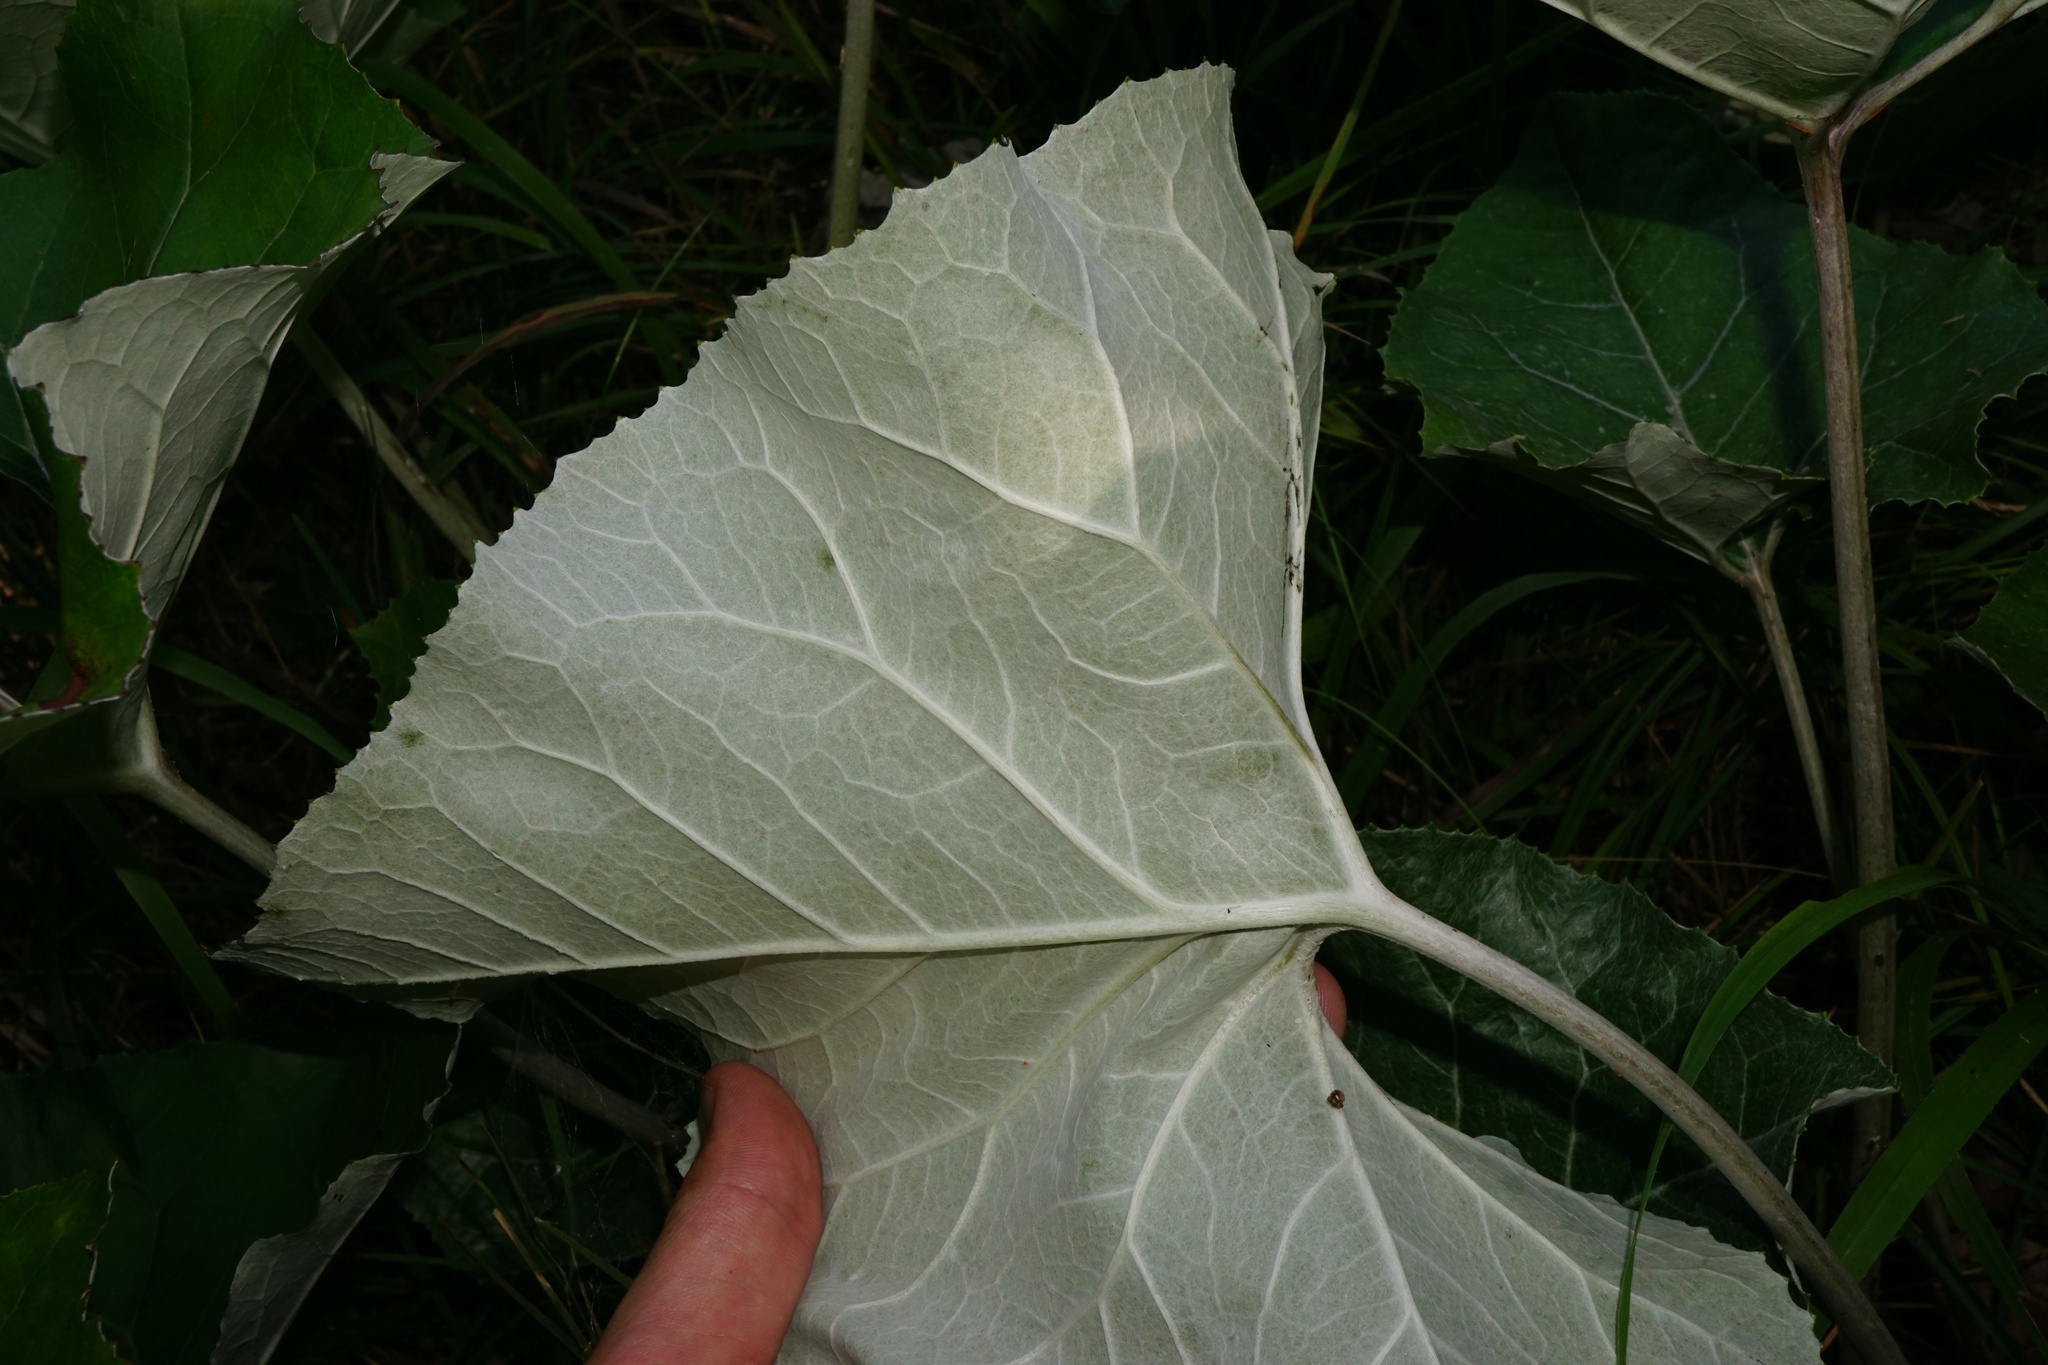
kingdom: Plantae
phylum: Tracheophyta
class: Magnoliopsida
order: Asterales
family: Asteraceae
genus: Petasites
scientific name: Petasites paradoxus
